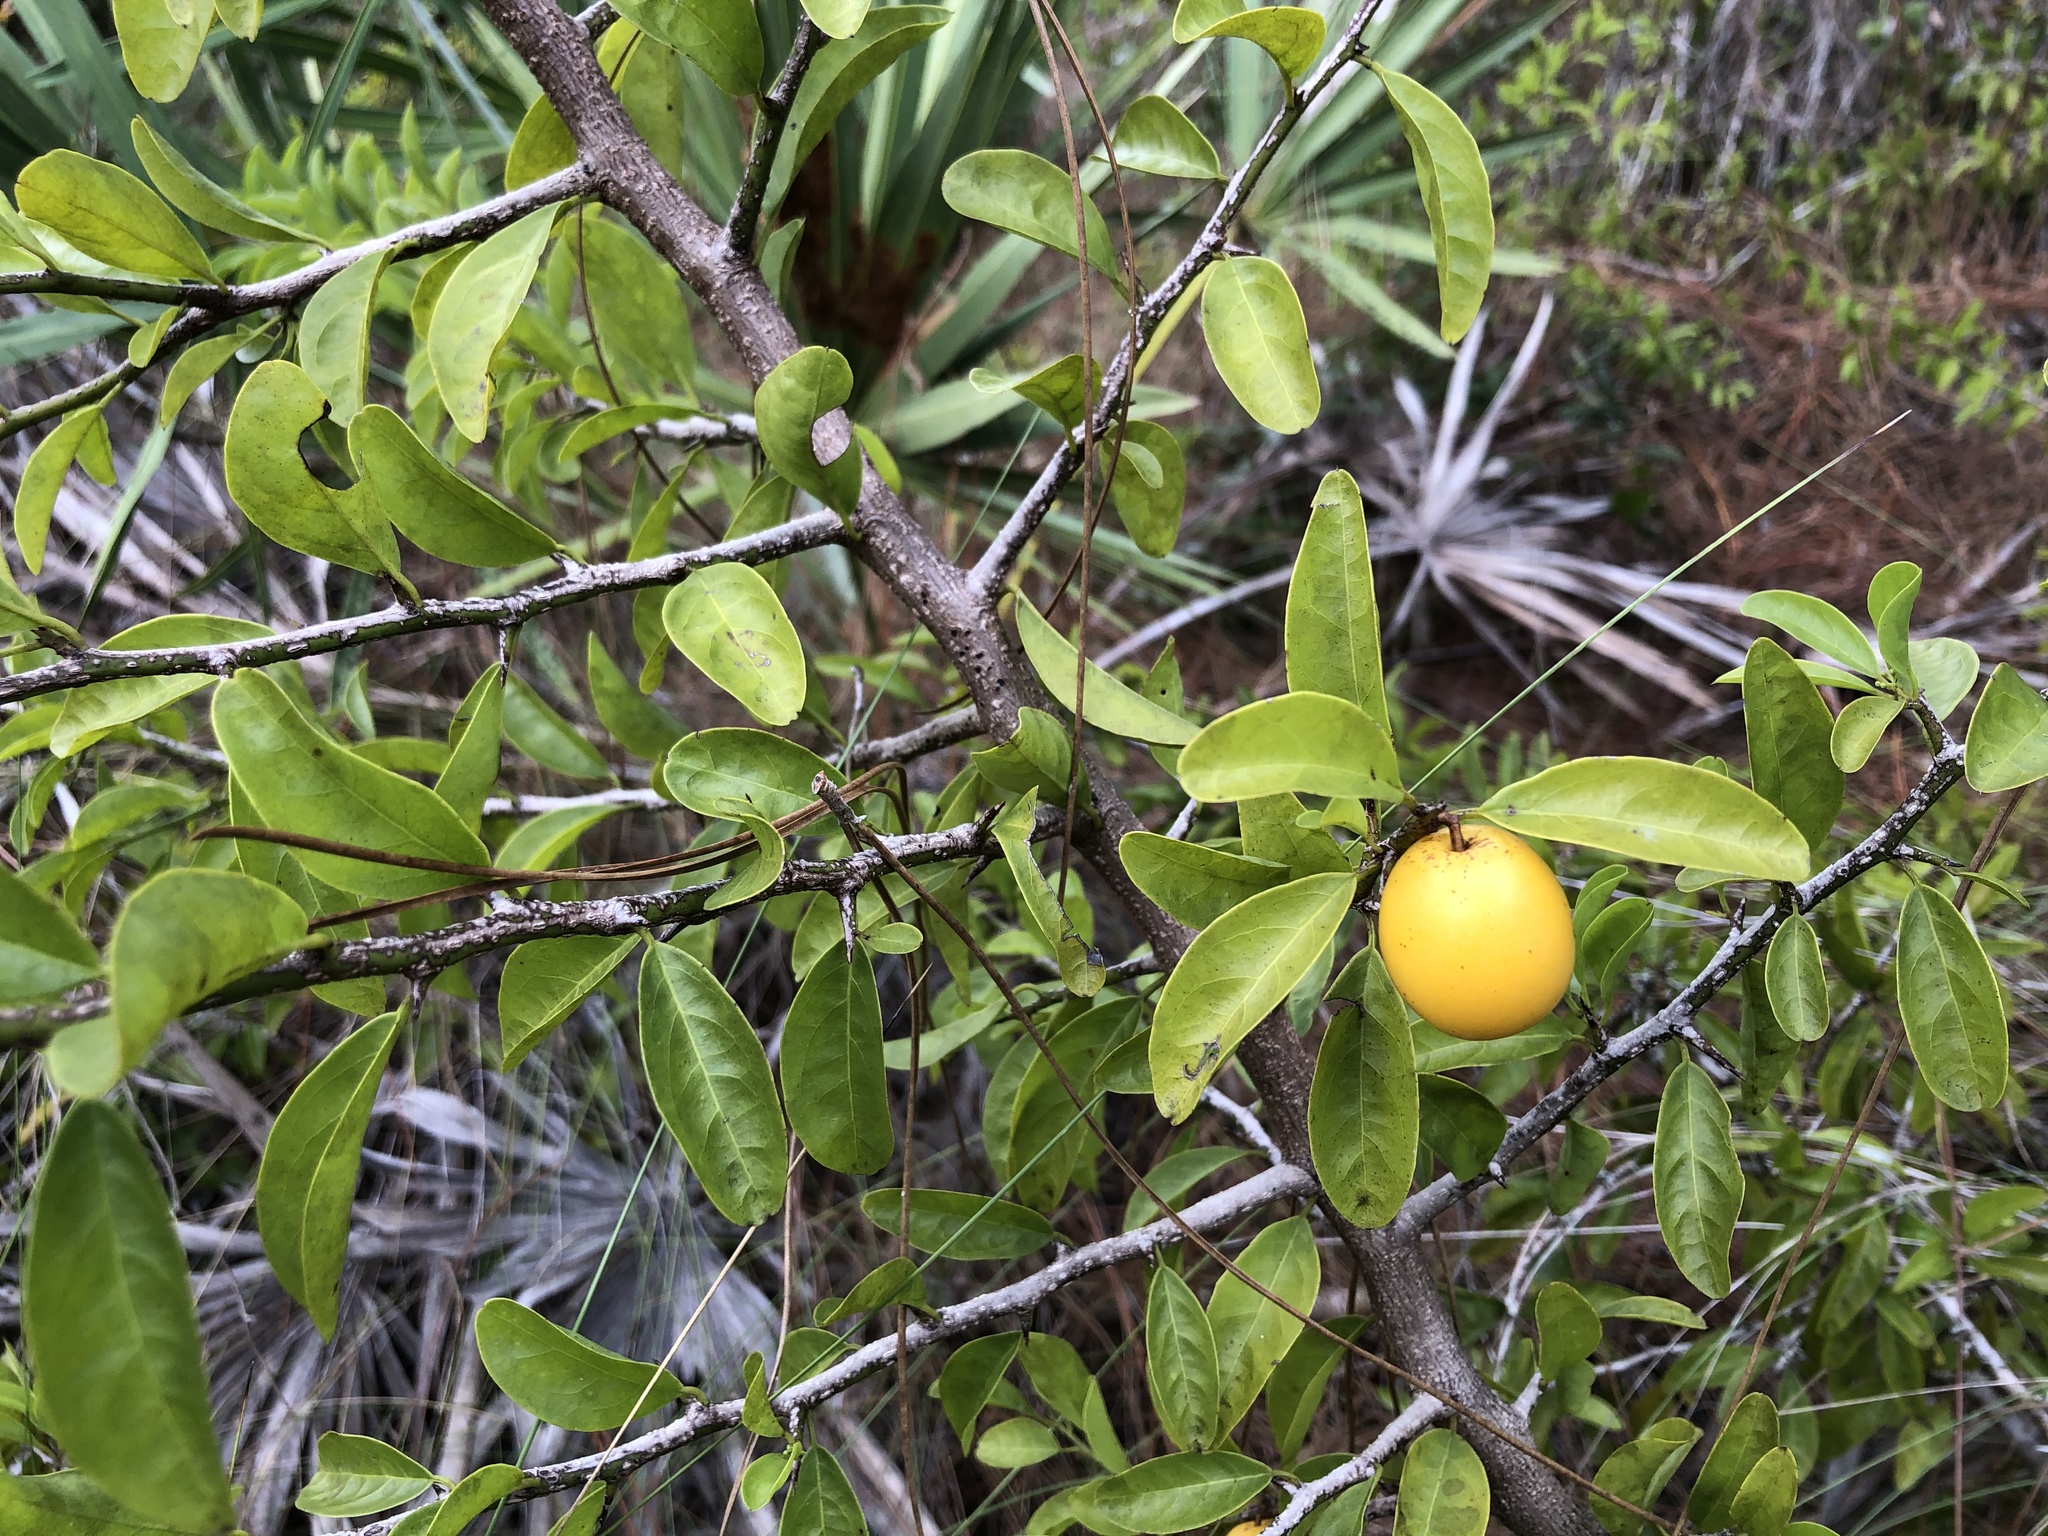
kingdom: Plantae
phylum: Tracheophyta
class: Magnoliopsida
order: Santalales
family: Ximeniaceae
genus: Ximenia
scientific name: Ximenia americana
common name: Tallowwood
